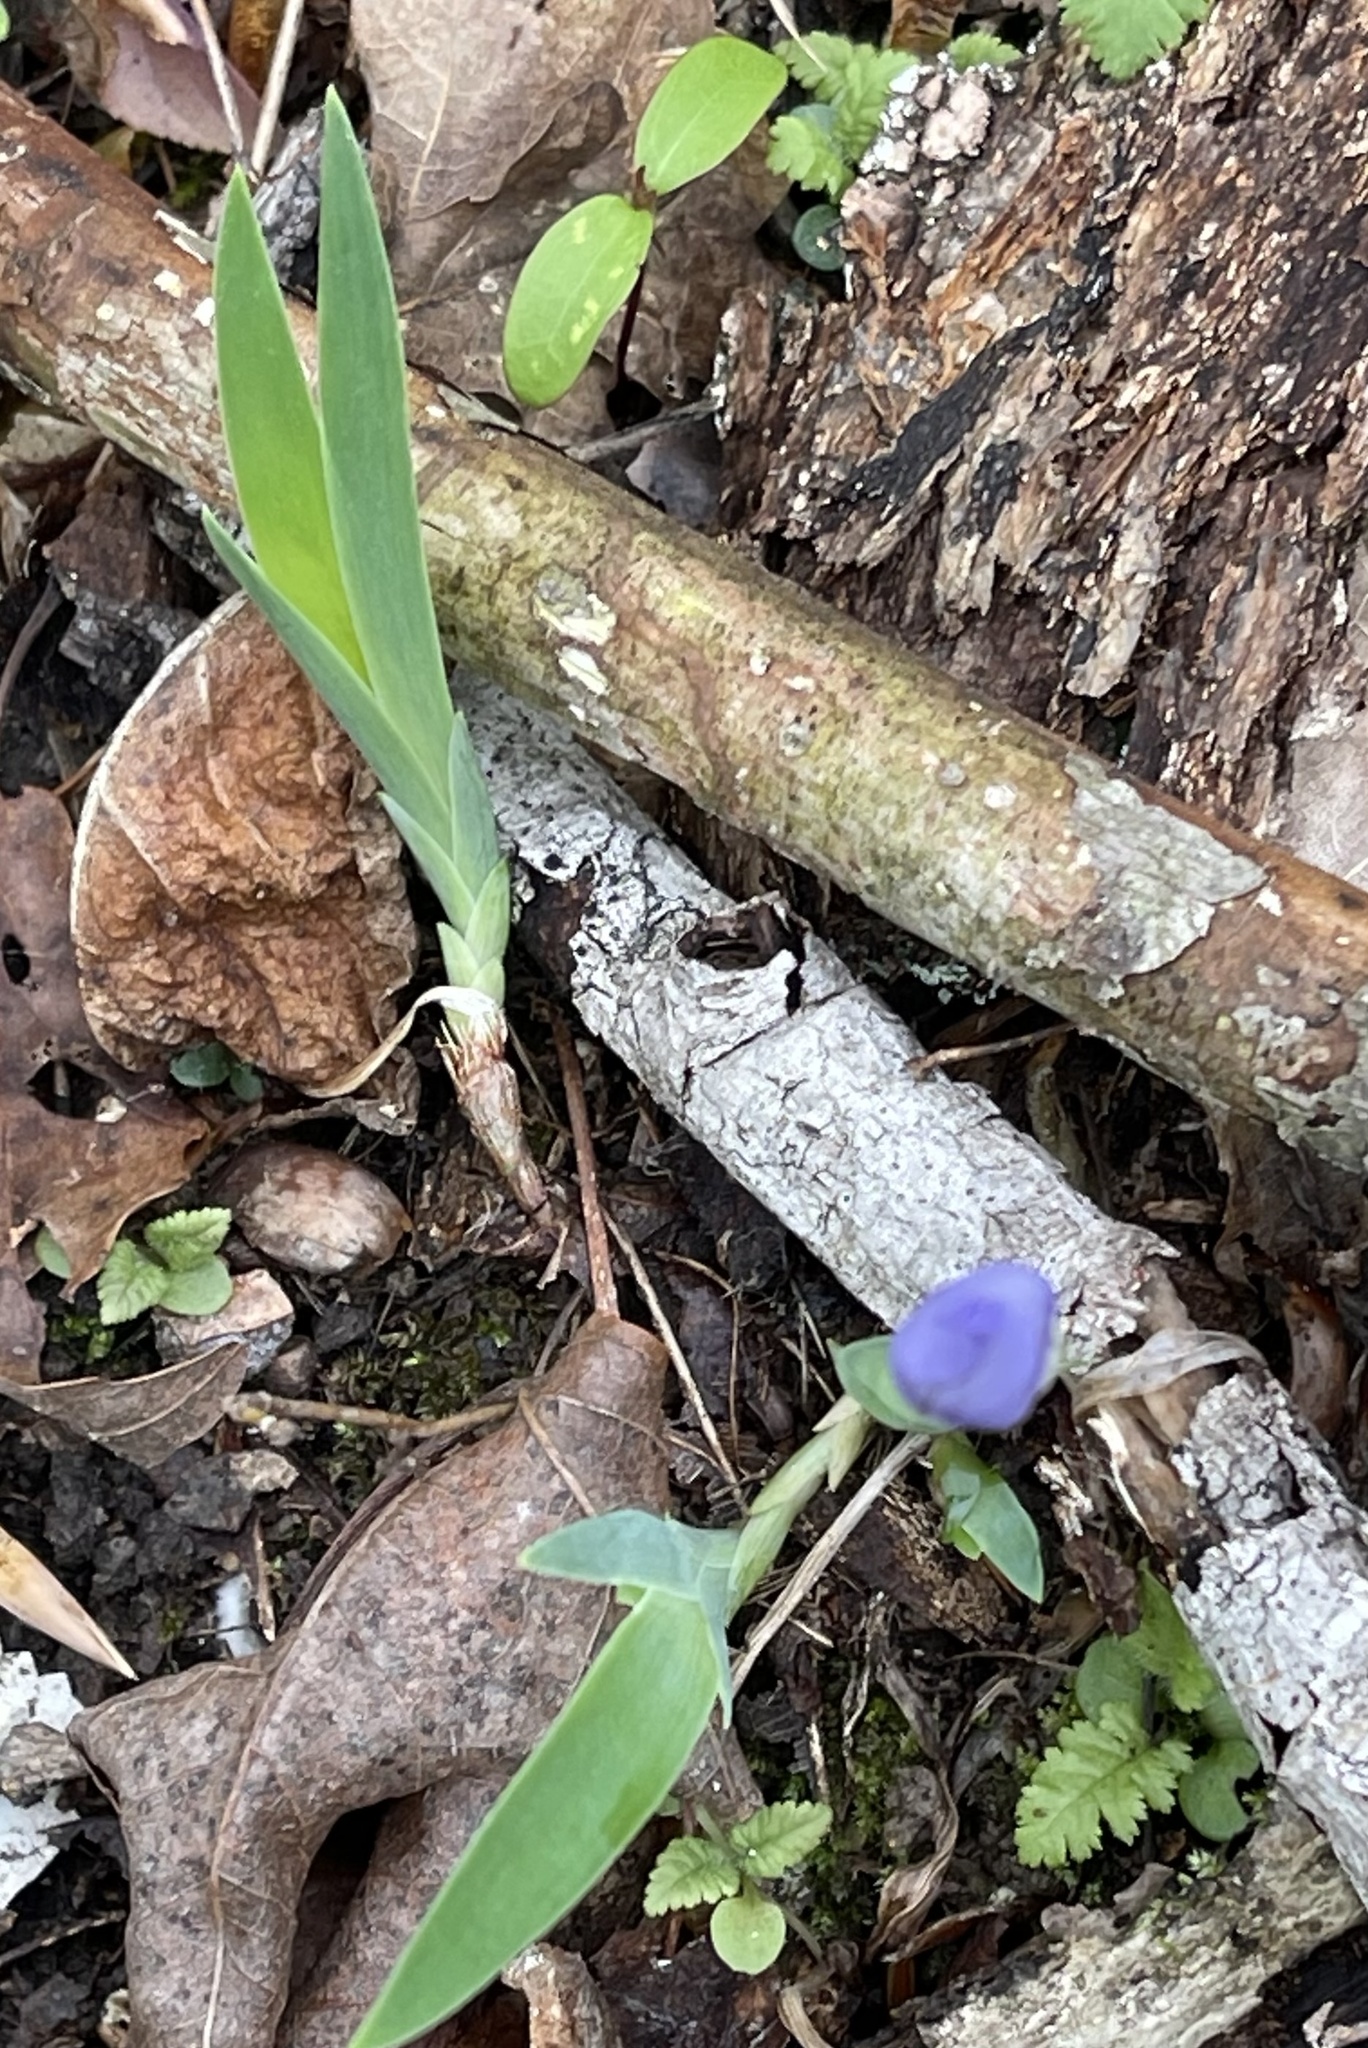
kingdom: Plantae
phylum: Tracheophyta
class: Liliopsida
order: Asparagales
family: Iridaceae
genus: Iris
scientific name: Iris cristata
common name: Crested iris
